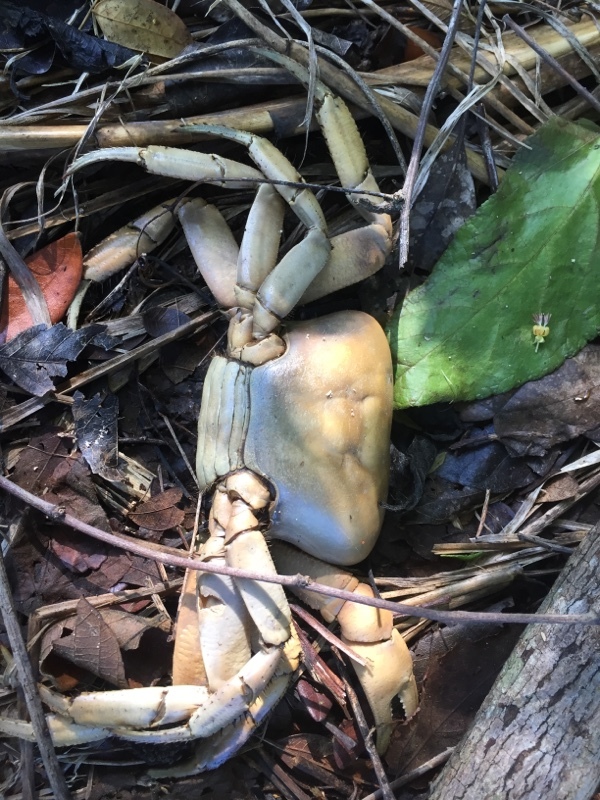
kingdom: Animalia
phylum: Arthropoda
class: Malacostraca
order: Decapoda
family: Gecarcinidae
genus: Cardisoma
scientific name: Cardisoma guanhumi
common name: Great land crab
